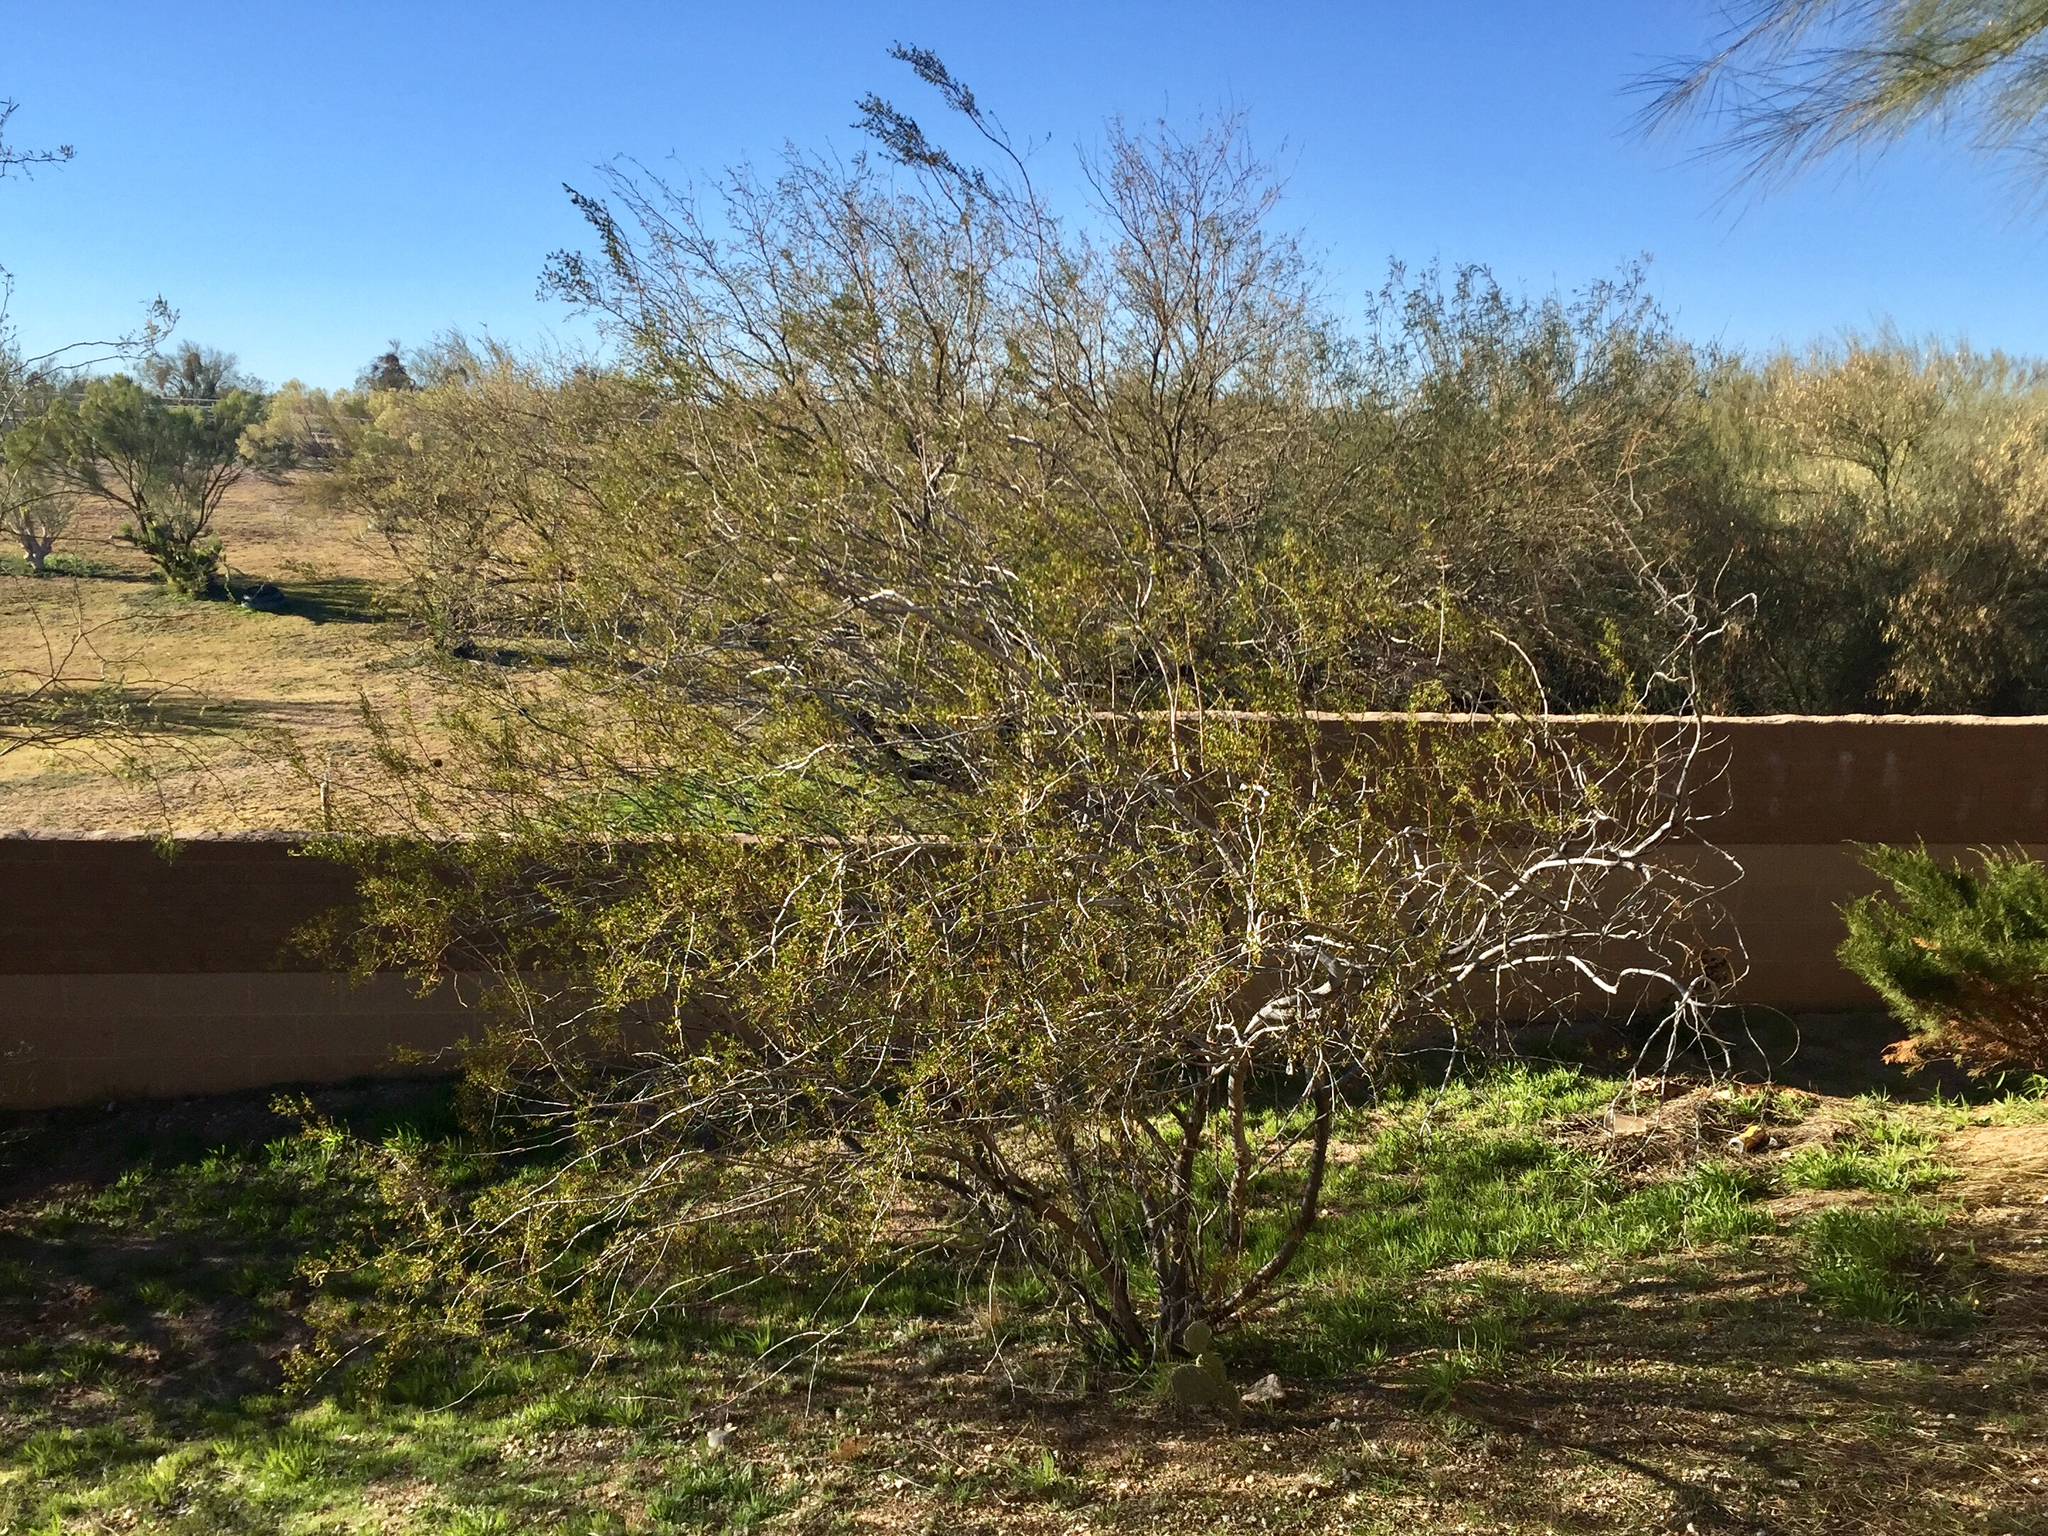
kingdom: Plantae
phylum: Tracheophyta
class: Magnoliopsida
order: Zygophyllales
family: Zygophyllaceae
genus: Larrea
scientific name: Larrea tridentata
